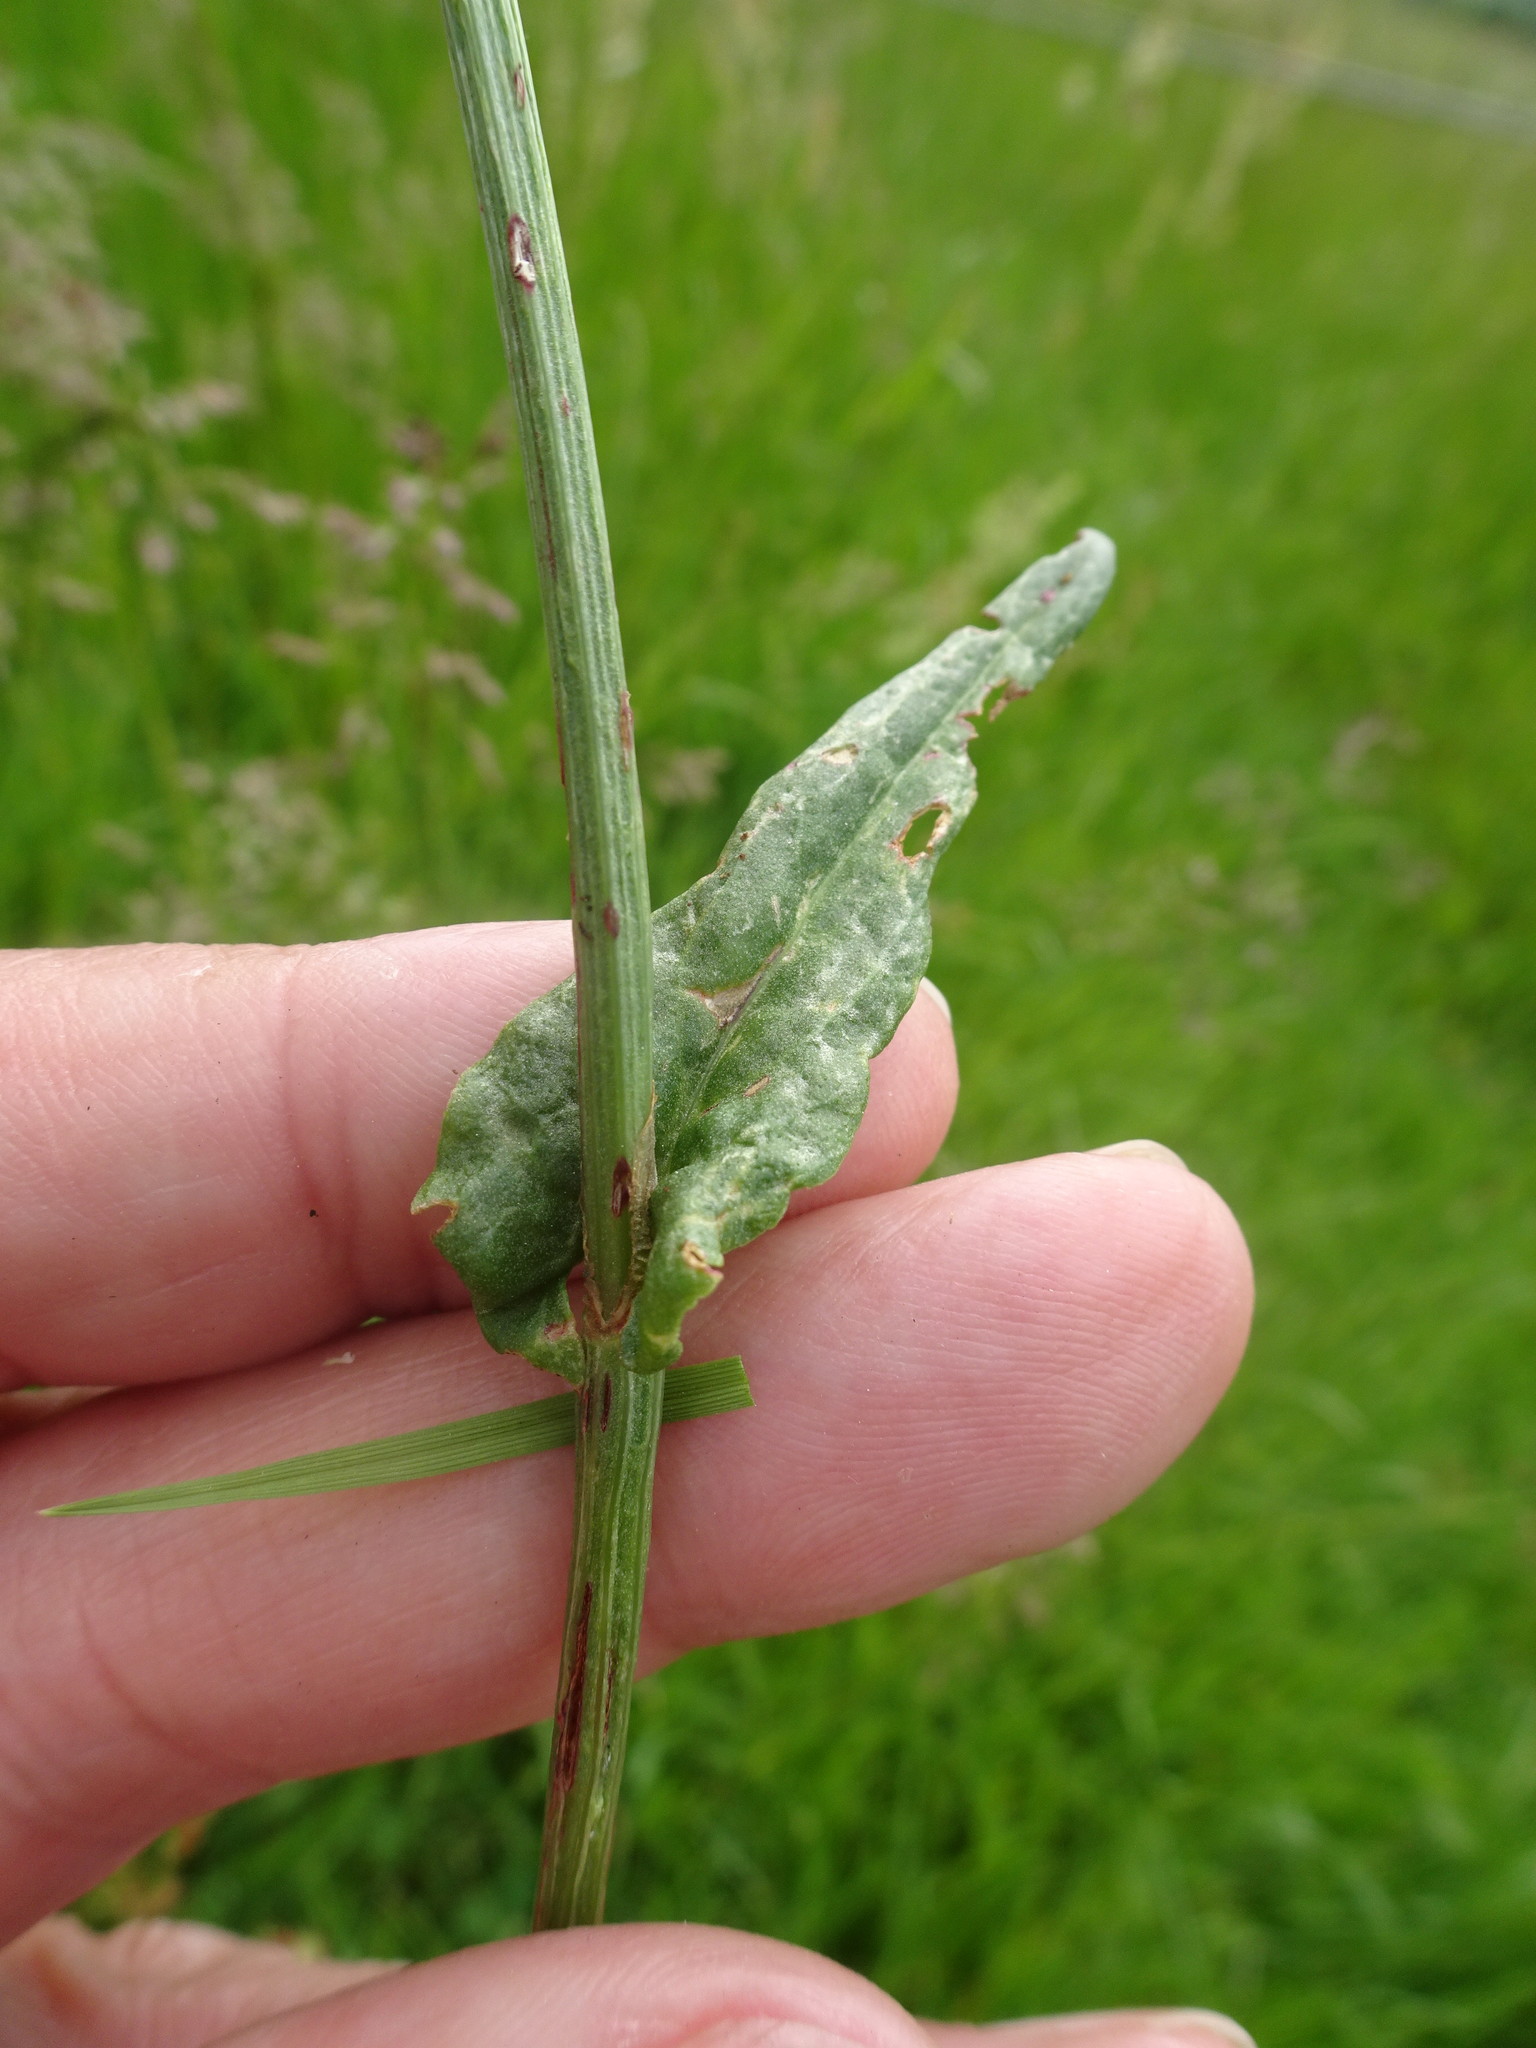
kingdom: Plantae
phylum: Tracheophyta
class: Magnoliopsida
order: Caryophyllales
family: Polygonaceae
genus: Rumex
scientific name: Rumex acetosa
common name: Garden sorrel
